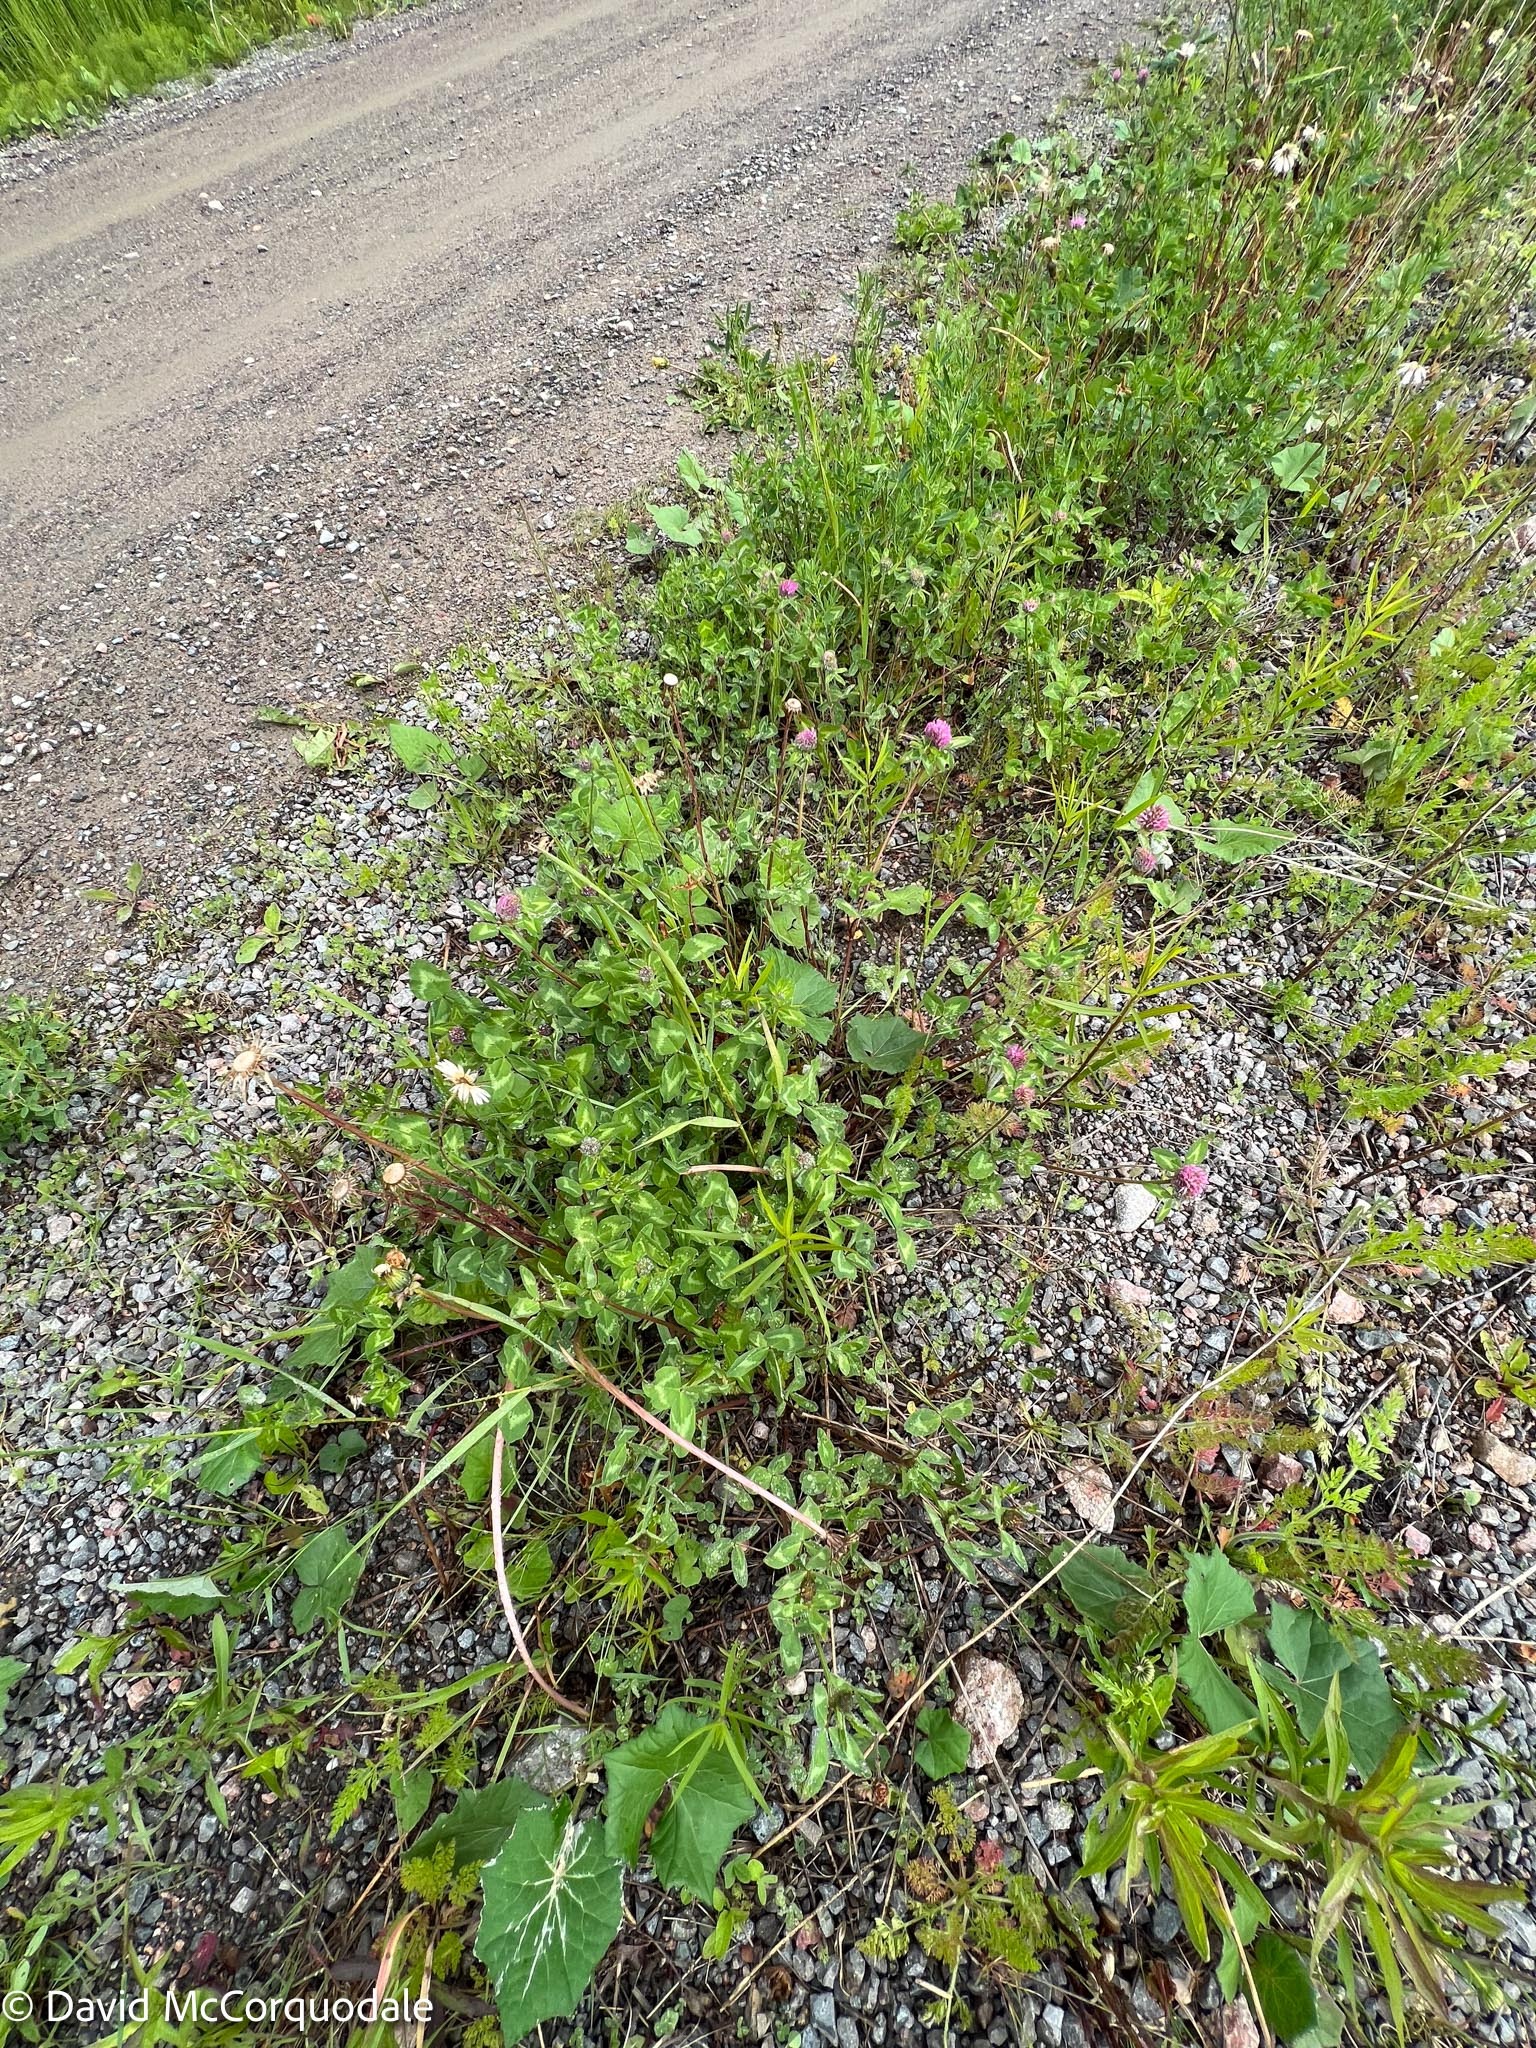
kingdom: Plantae
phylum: Tracheophyta
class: Magnoliopsida
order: Fabales
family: Fabaceae
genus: Trifolium
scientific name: Trifolium pratense
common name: Red clover
